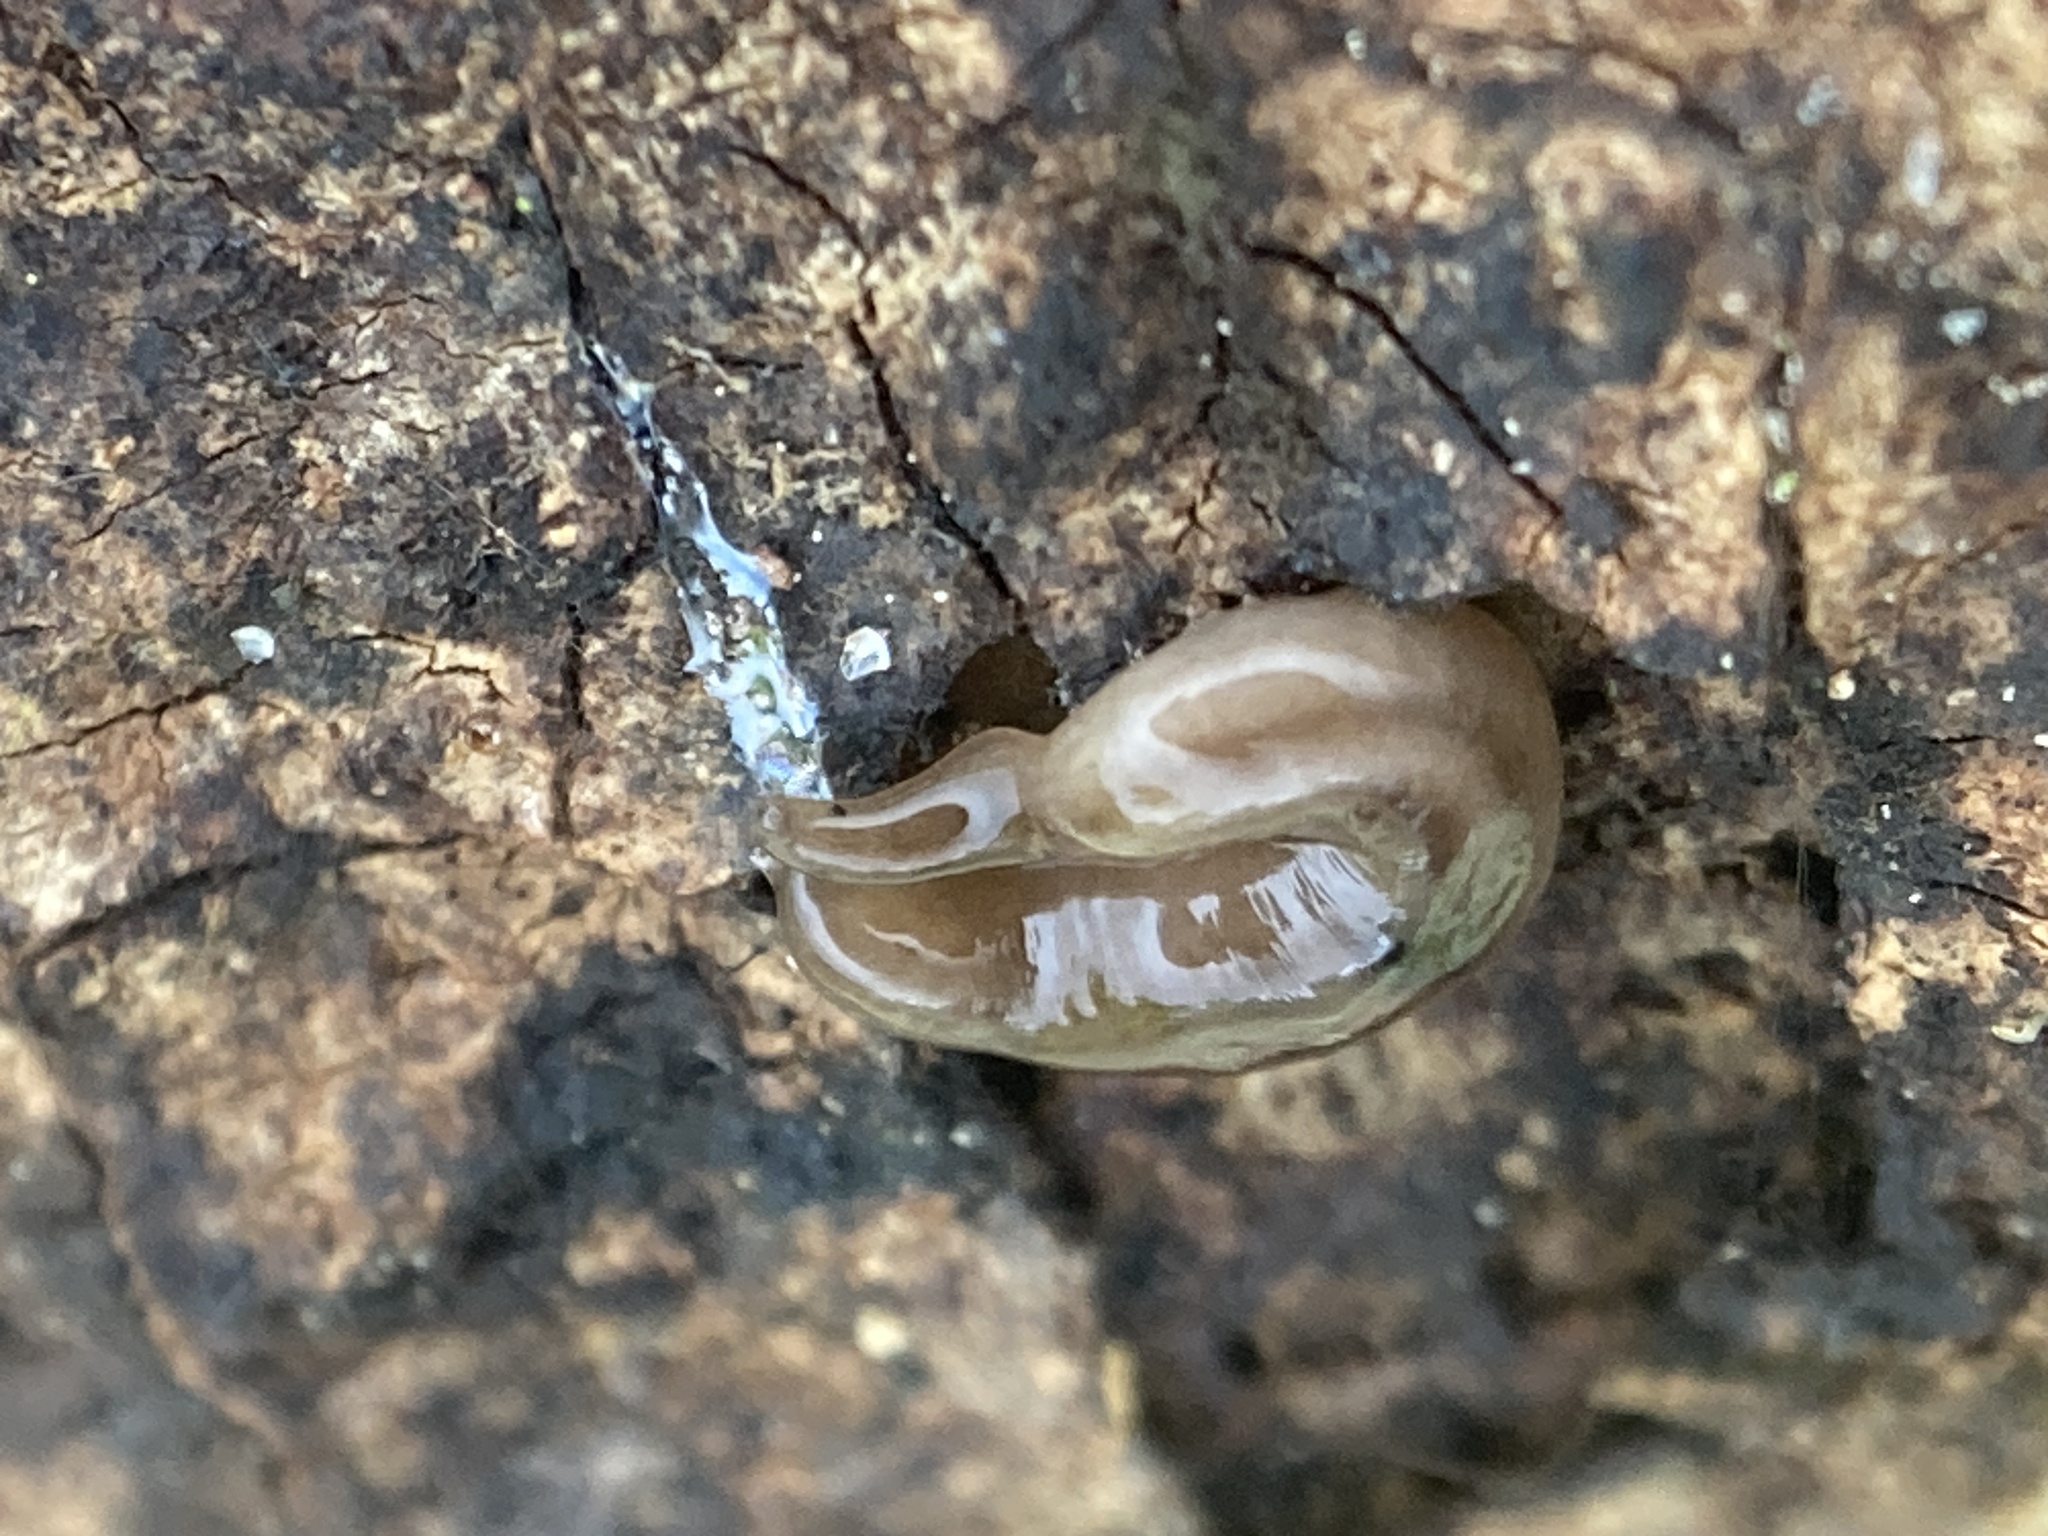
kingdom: Animalia
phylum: Platyhelminthes
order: Tricladida
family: Geoplanidae
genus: Rhynchodemus
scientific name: Rhynchodemus sylvaticus
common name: A flatworm
